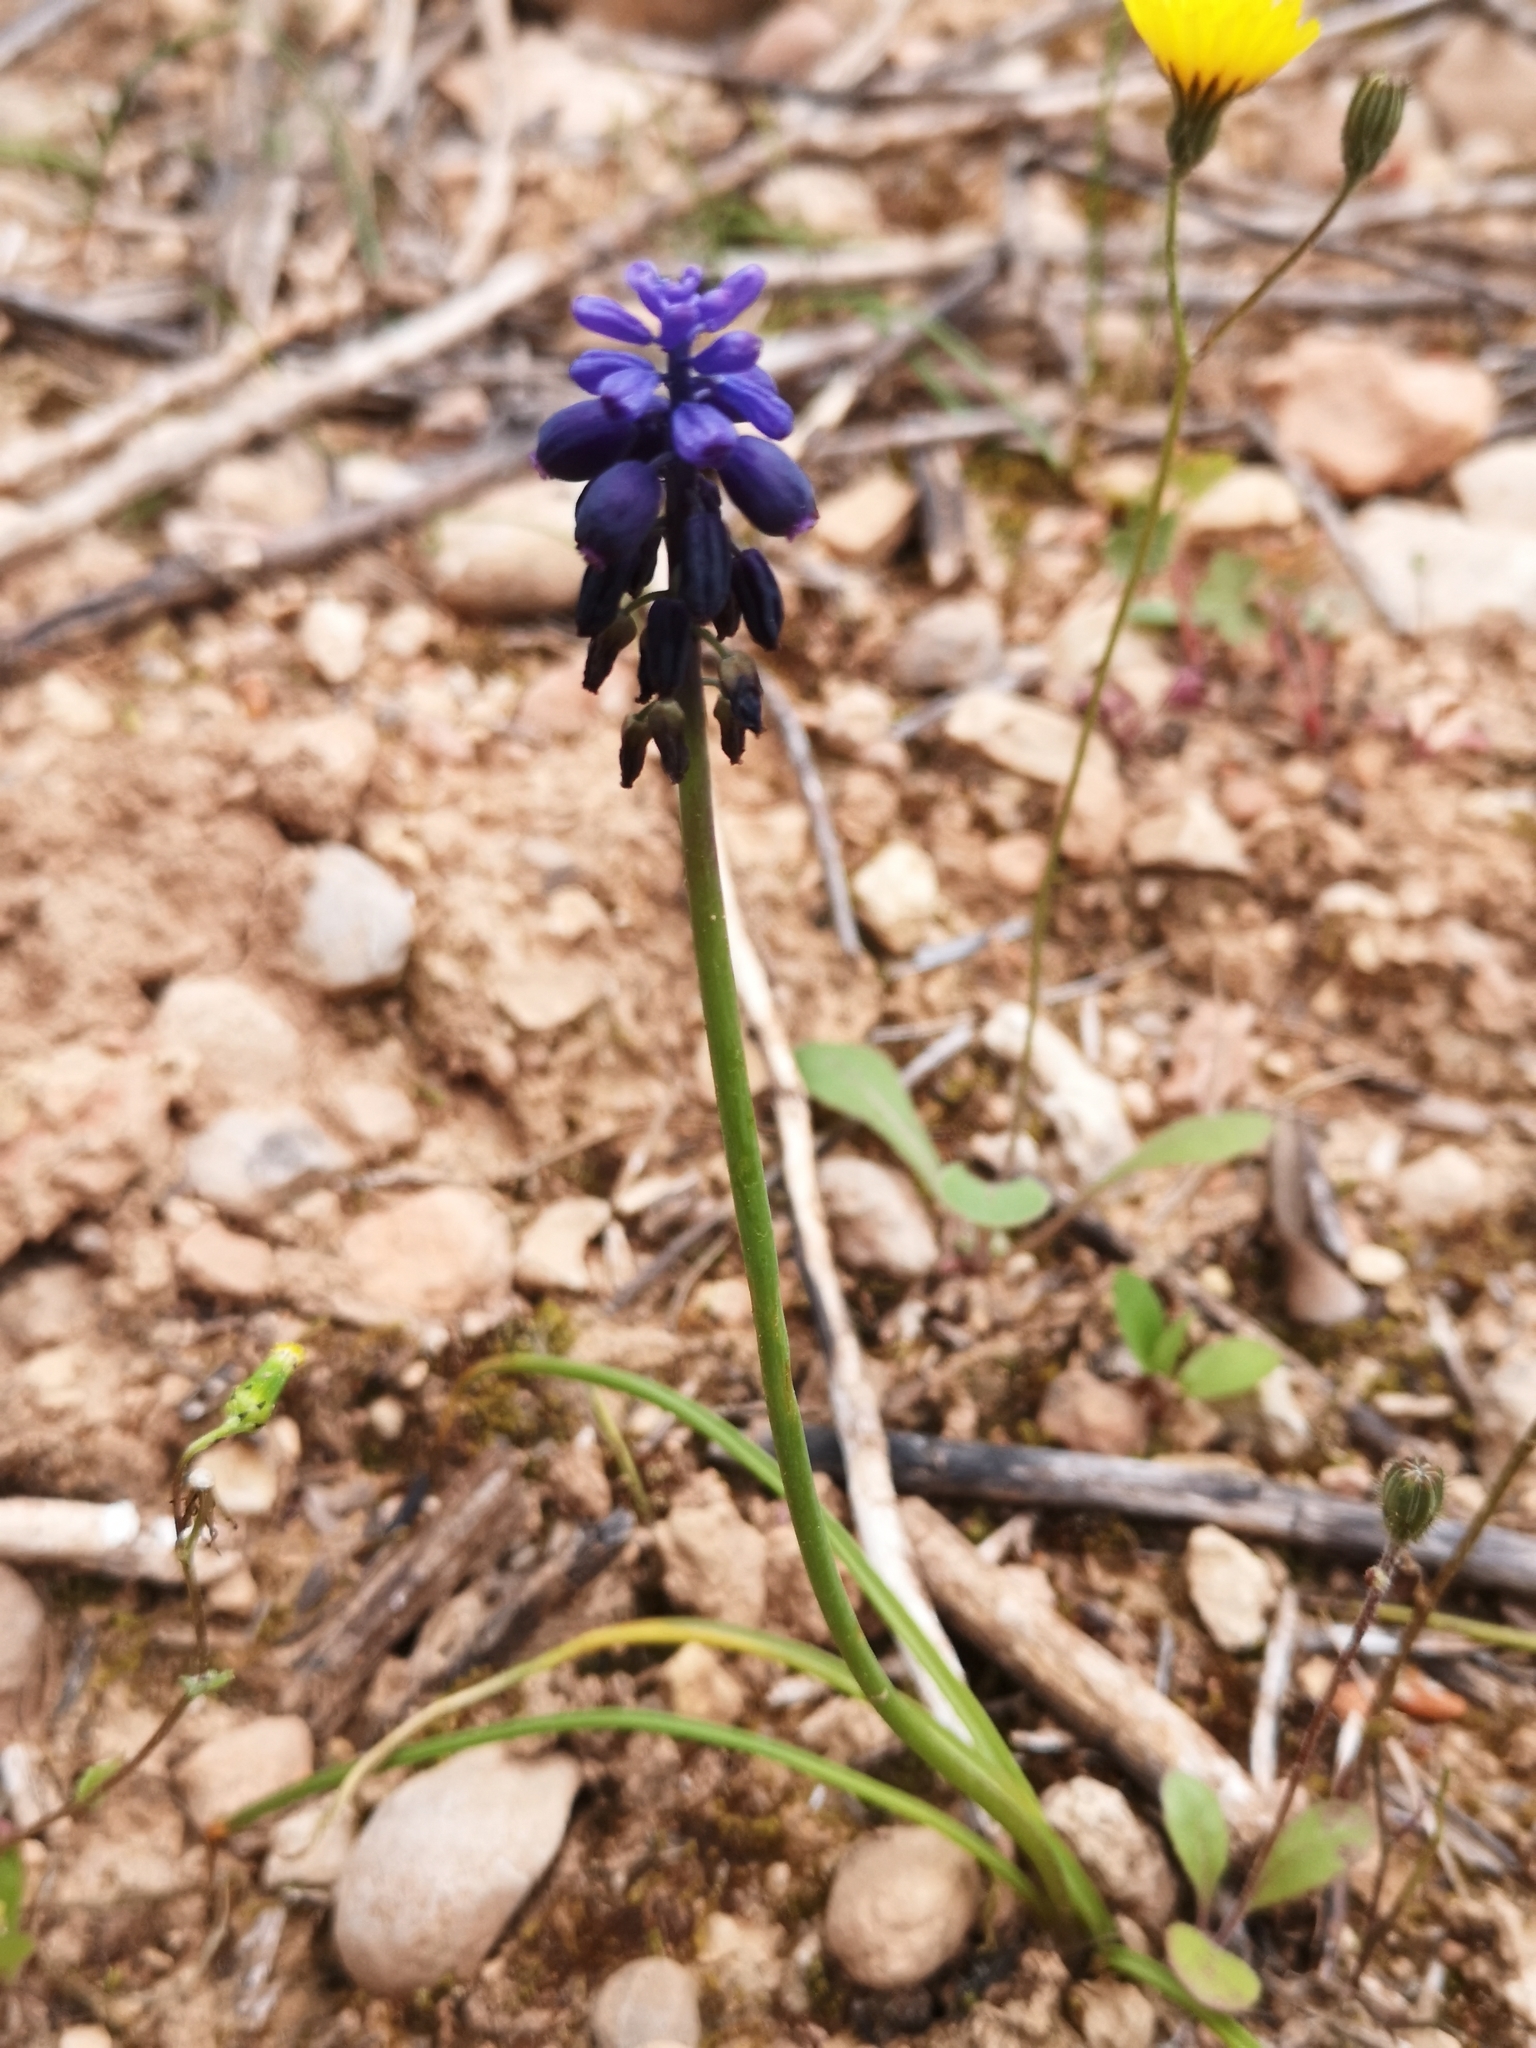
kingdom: Plantae
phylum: Tracheophyta
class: Liliopsida
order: Asparagales
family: Asparagaceae
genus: Muscari
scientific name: Muscari neglectum
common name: Grape-hyacinth
